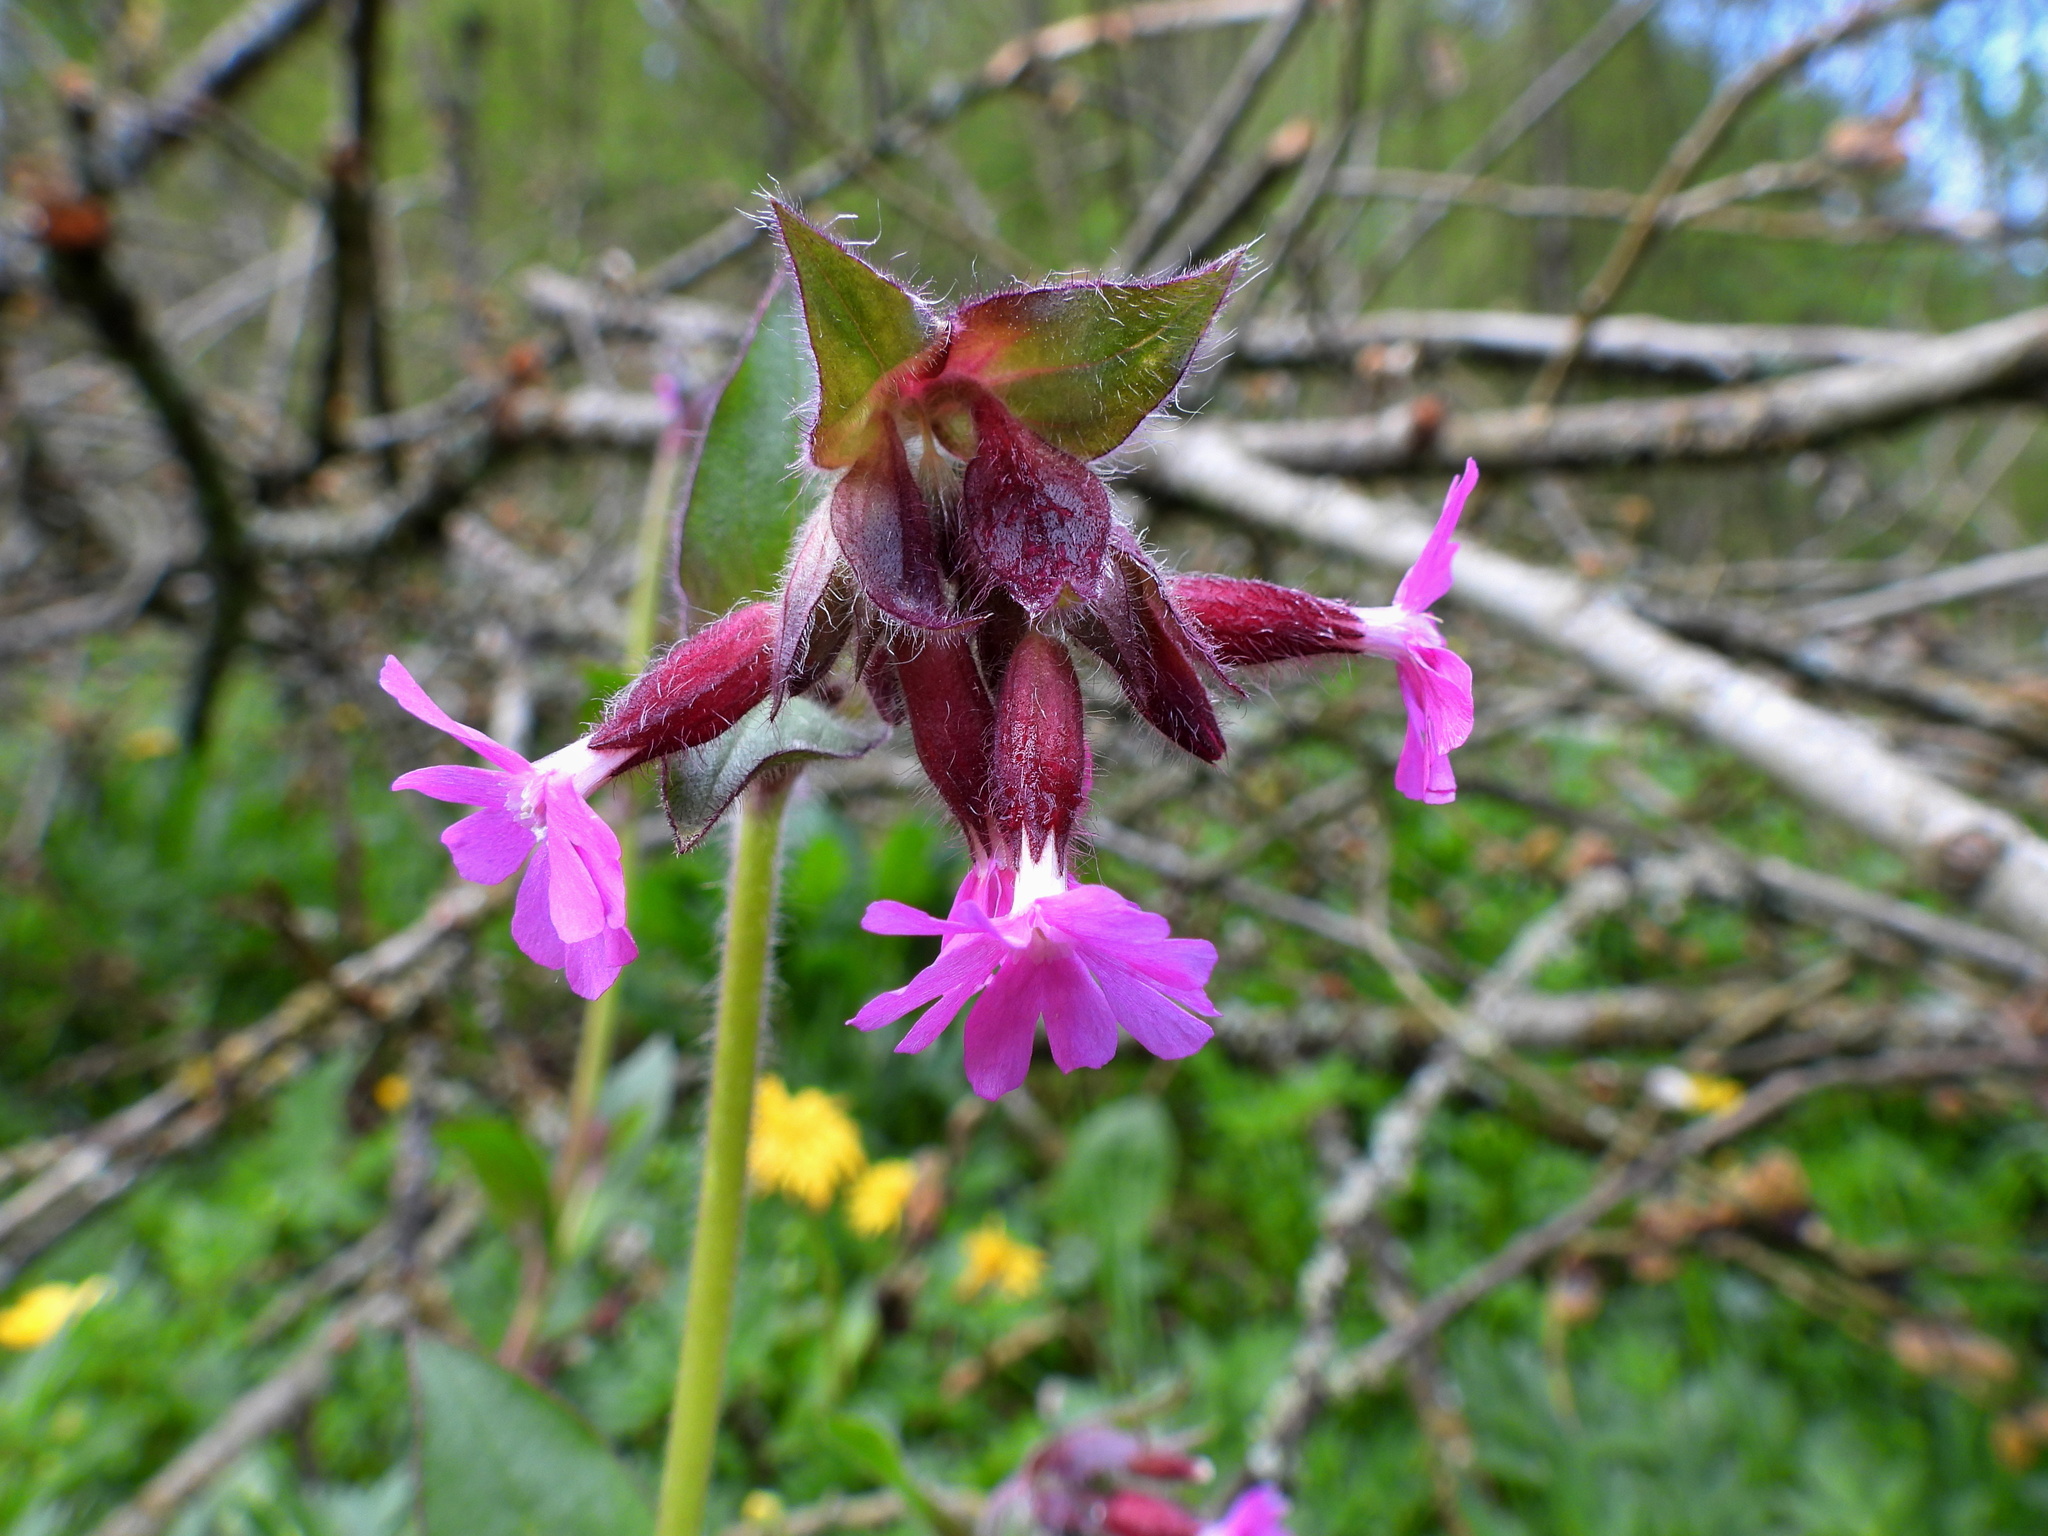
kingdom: Plantae
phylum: Tracheophyta
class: Magnoliopsida
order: Caryophyllales
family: Caryophyllaceae
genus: Silene
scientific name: Silene dioica
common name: Red campion
